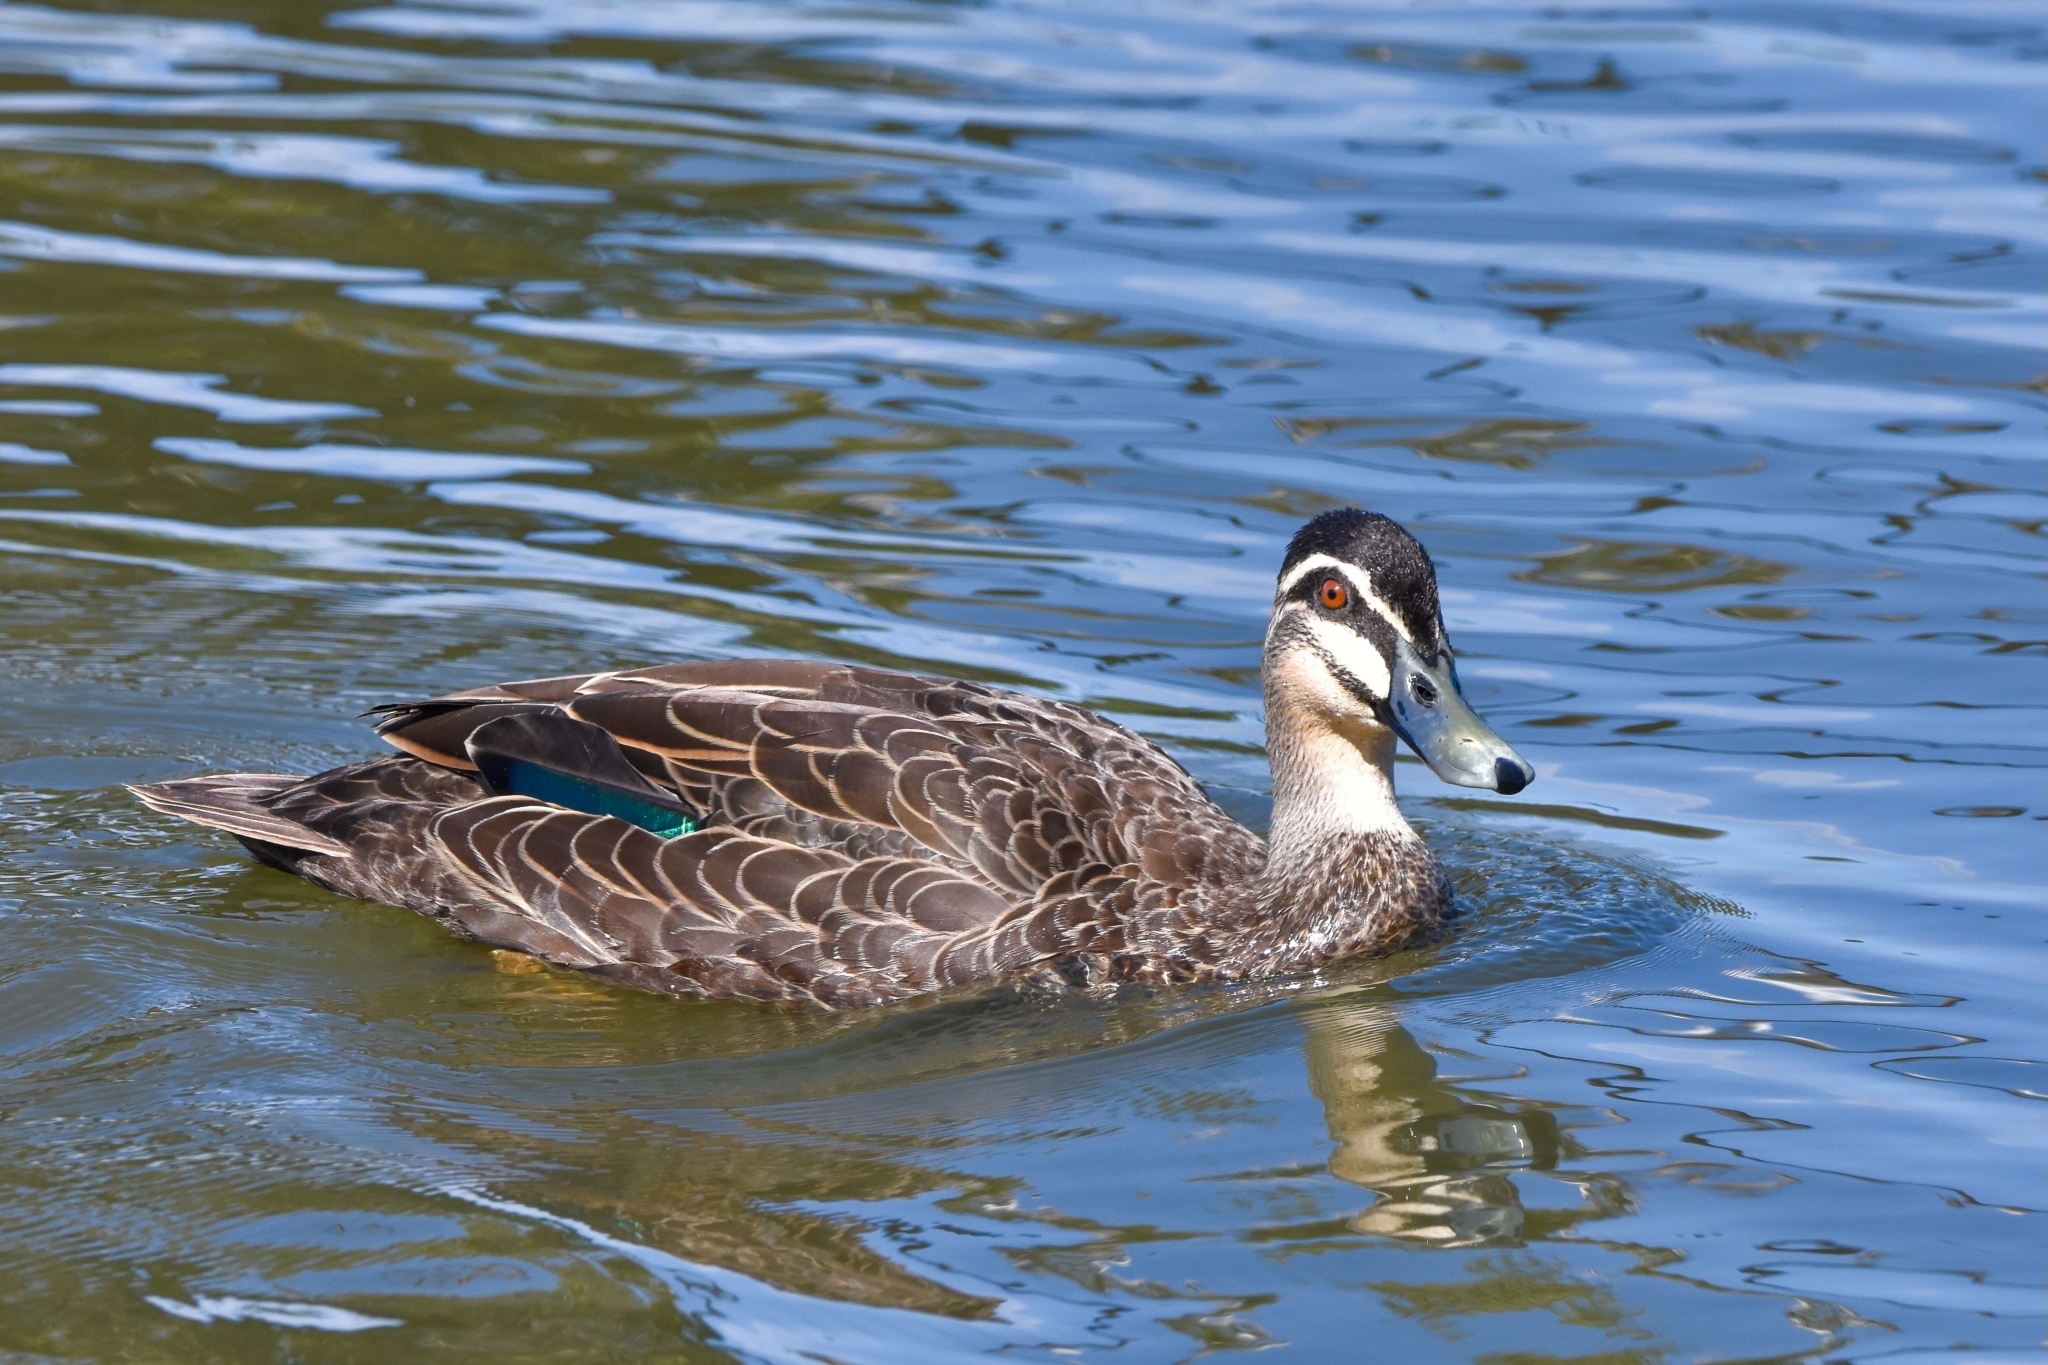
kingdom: Animalia
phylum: Chordata
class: Aves
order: Anseriformes
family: Anatidae
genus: Anas
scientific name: Anas superciliosa
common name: Pacific black duck
